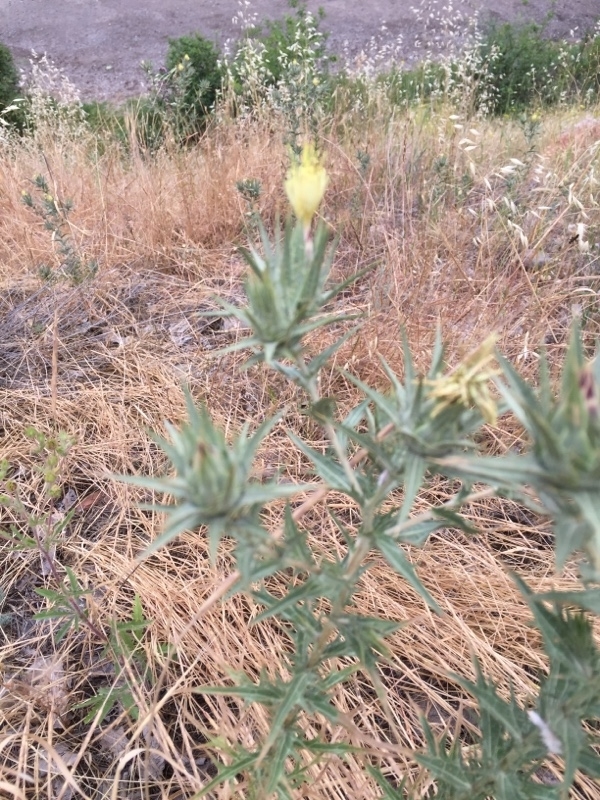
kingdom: Plantae
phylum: Tracheophyta
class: Magnoliopsida
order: Asterales
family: Asteraceae
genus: Carthamus
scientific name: Carthamus lanatus
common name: Downy safflower
